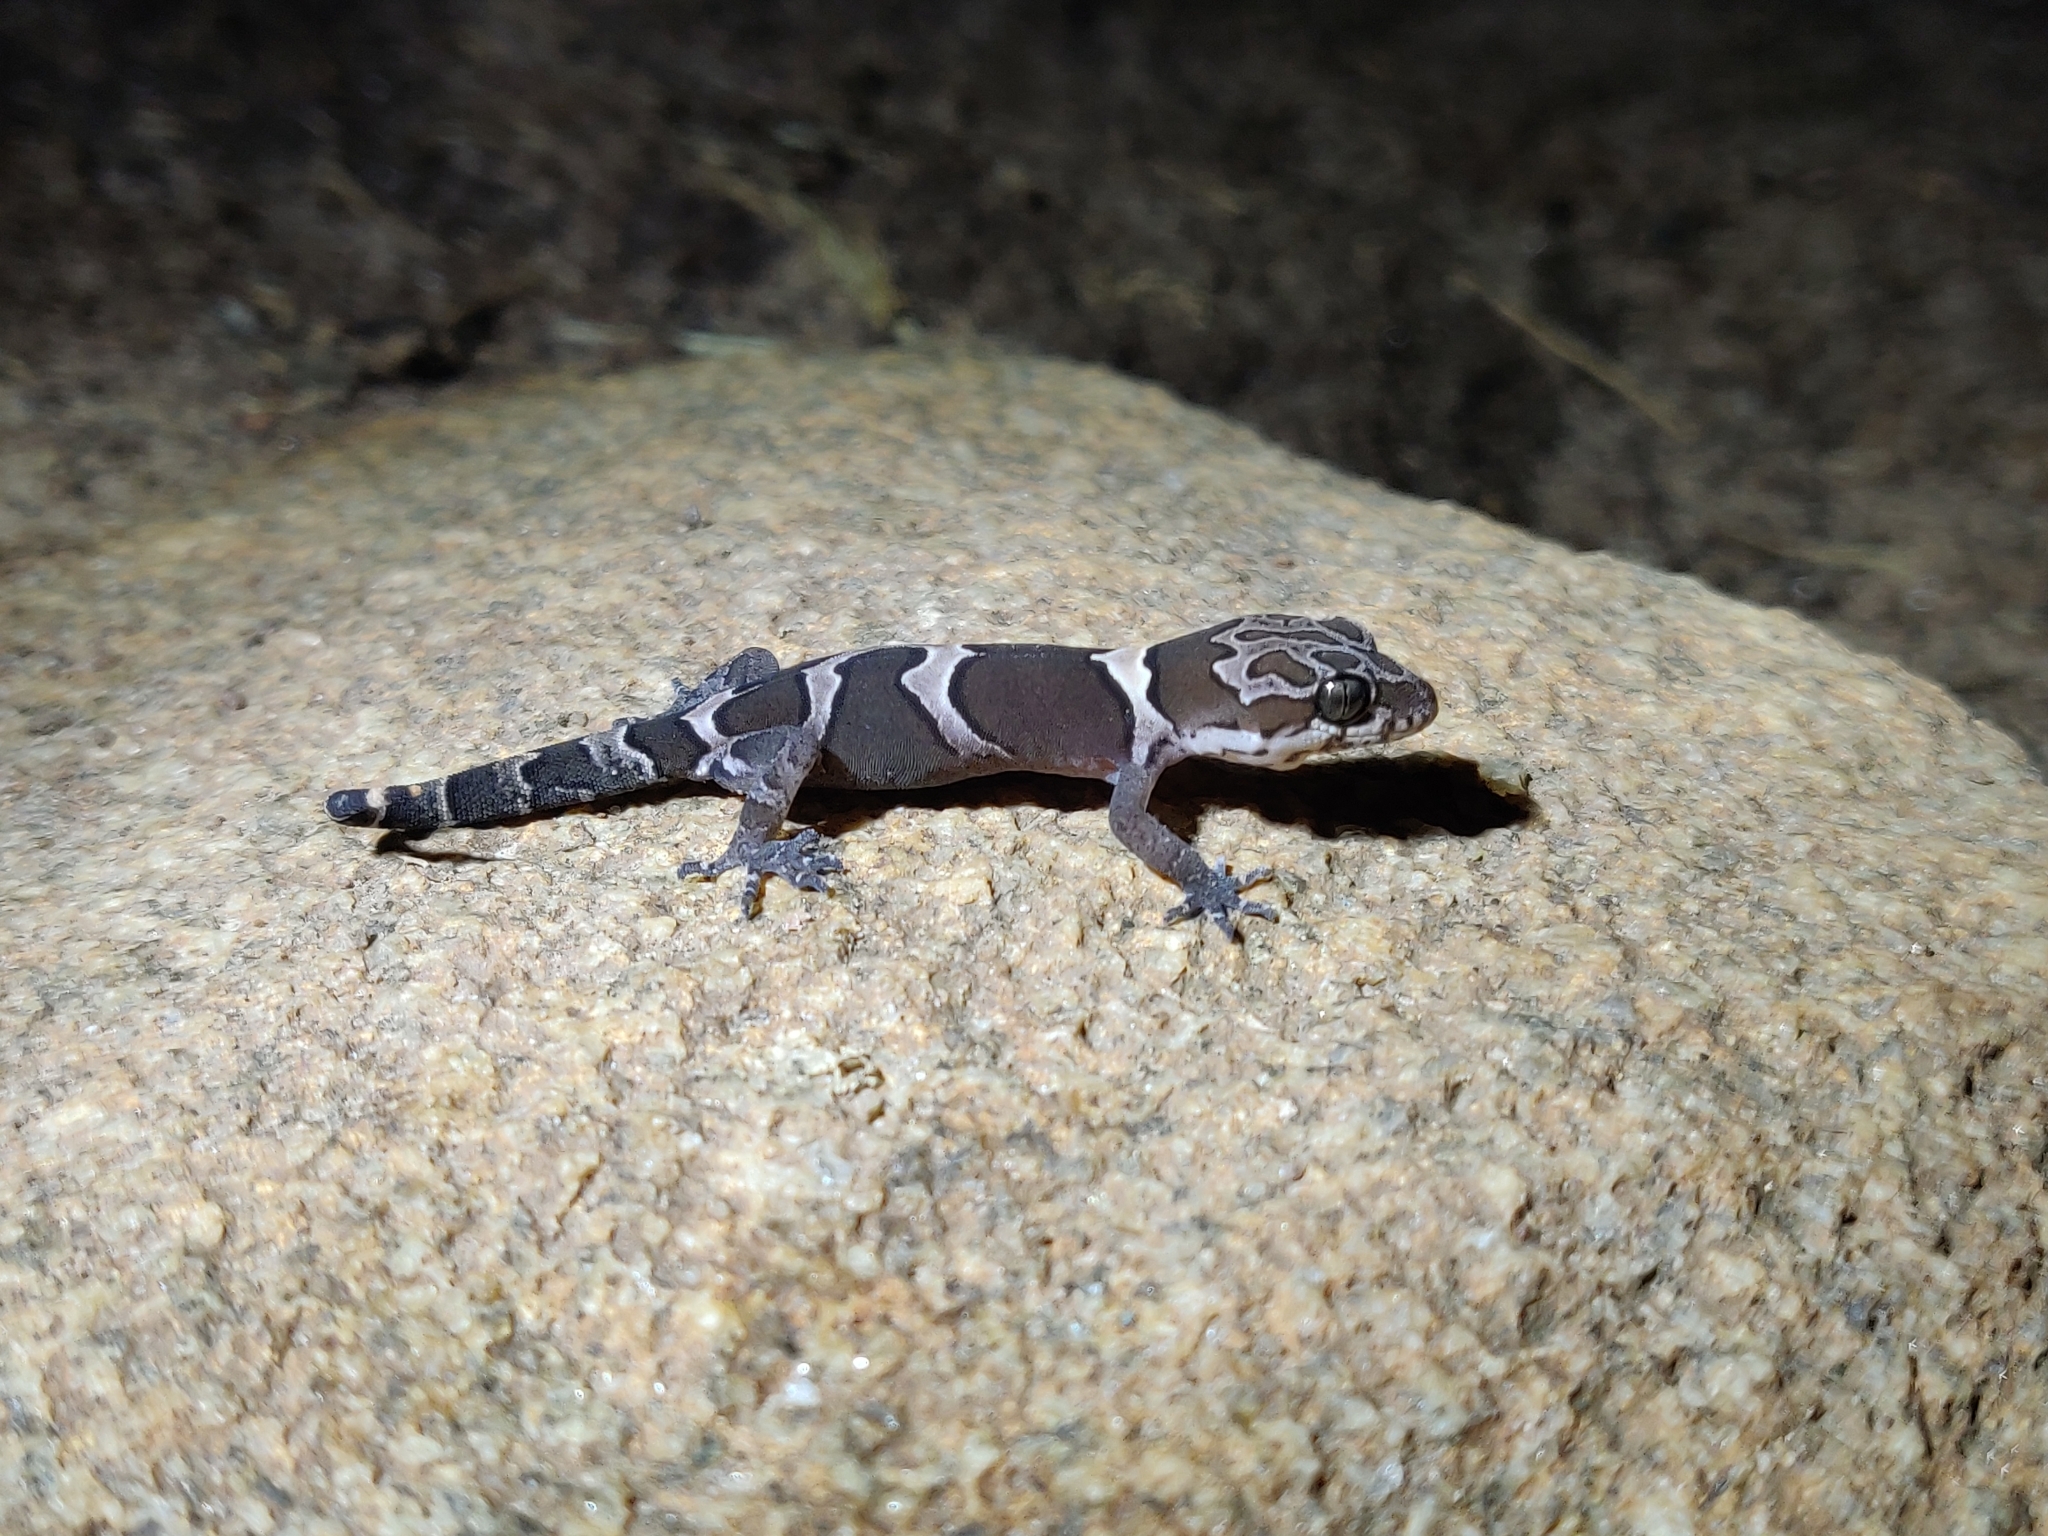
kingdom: Animalia
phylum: Chordata
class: Squamata
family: Gekkonidae
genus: Cyrtodactylus
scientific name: Cyrtodactylus srilekhae
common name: Bangalore geckoella
